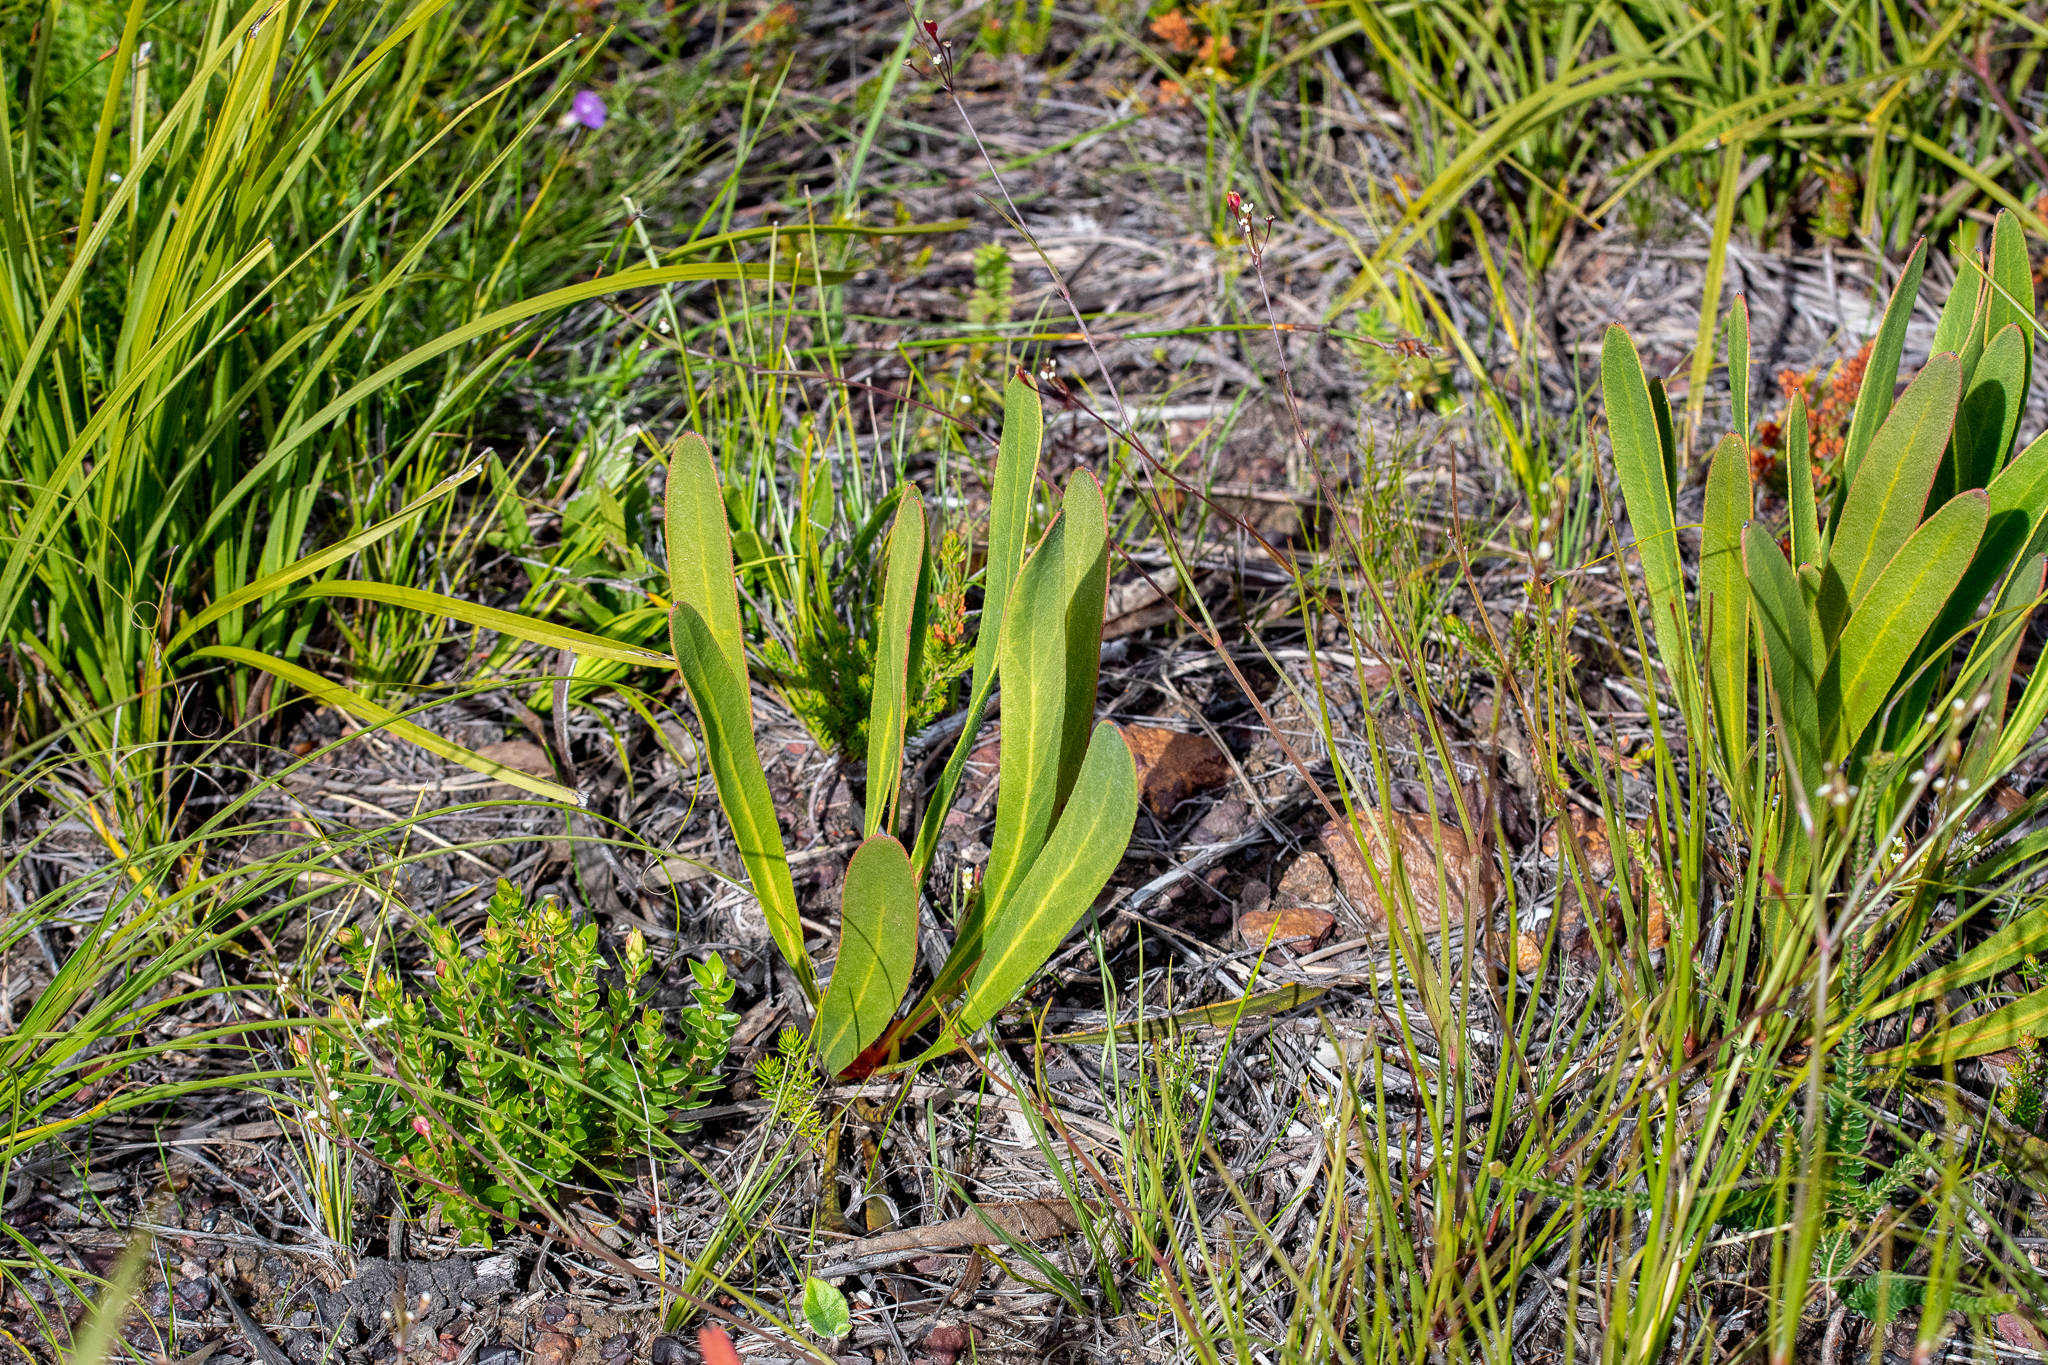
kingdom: Plantae
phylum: Tracheophyta
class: Magnoliopsida
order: Proteales
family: Proteaceae
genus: Protea
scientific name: Protea scabra
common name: Sandpaper-leaf sugarbush
